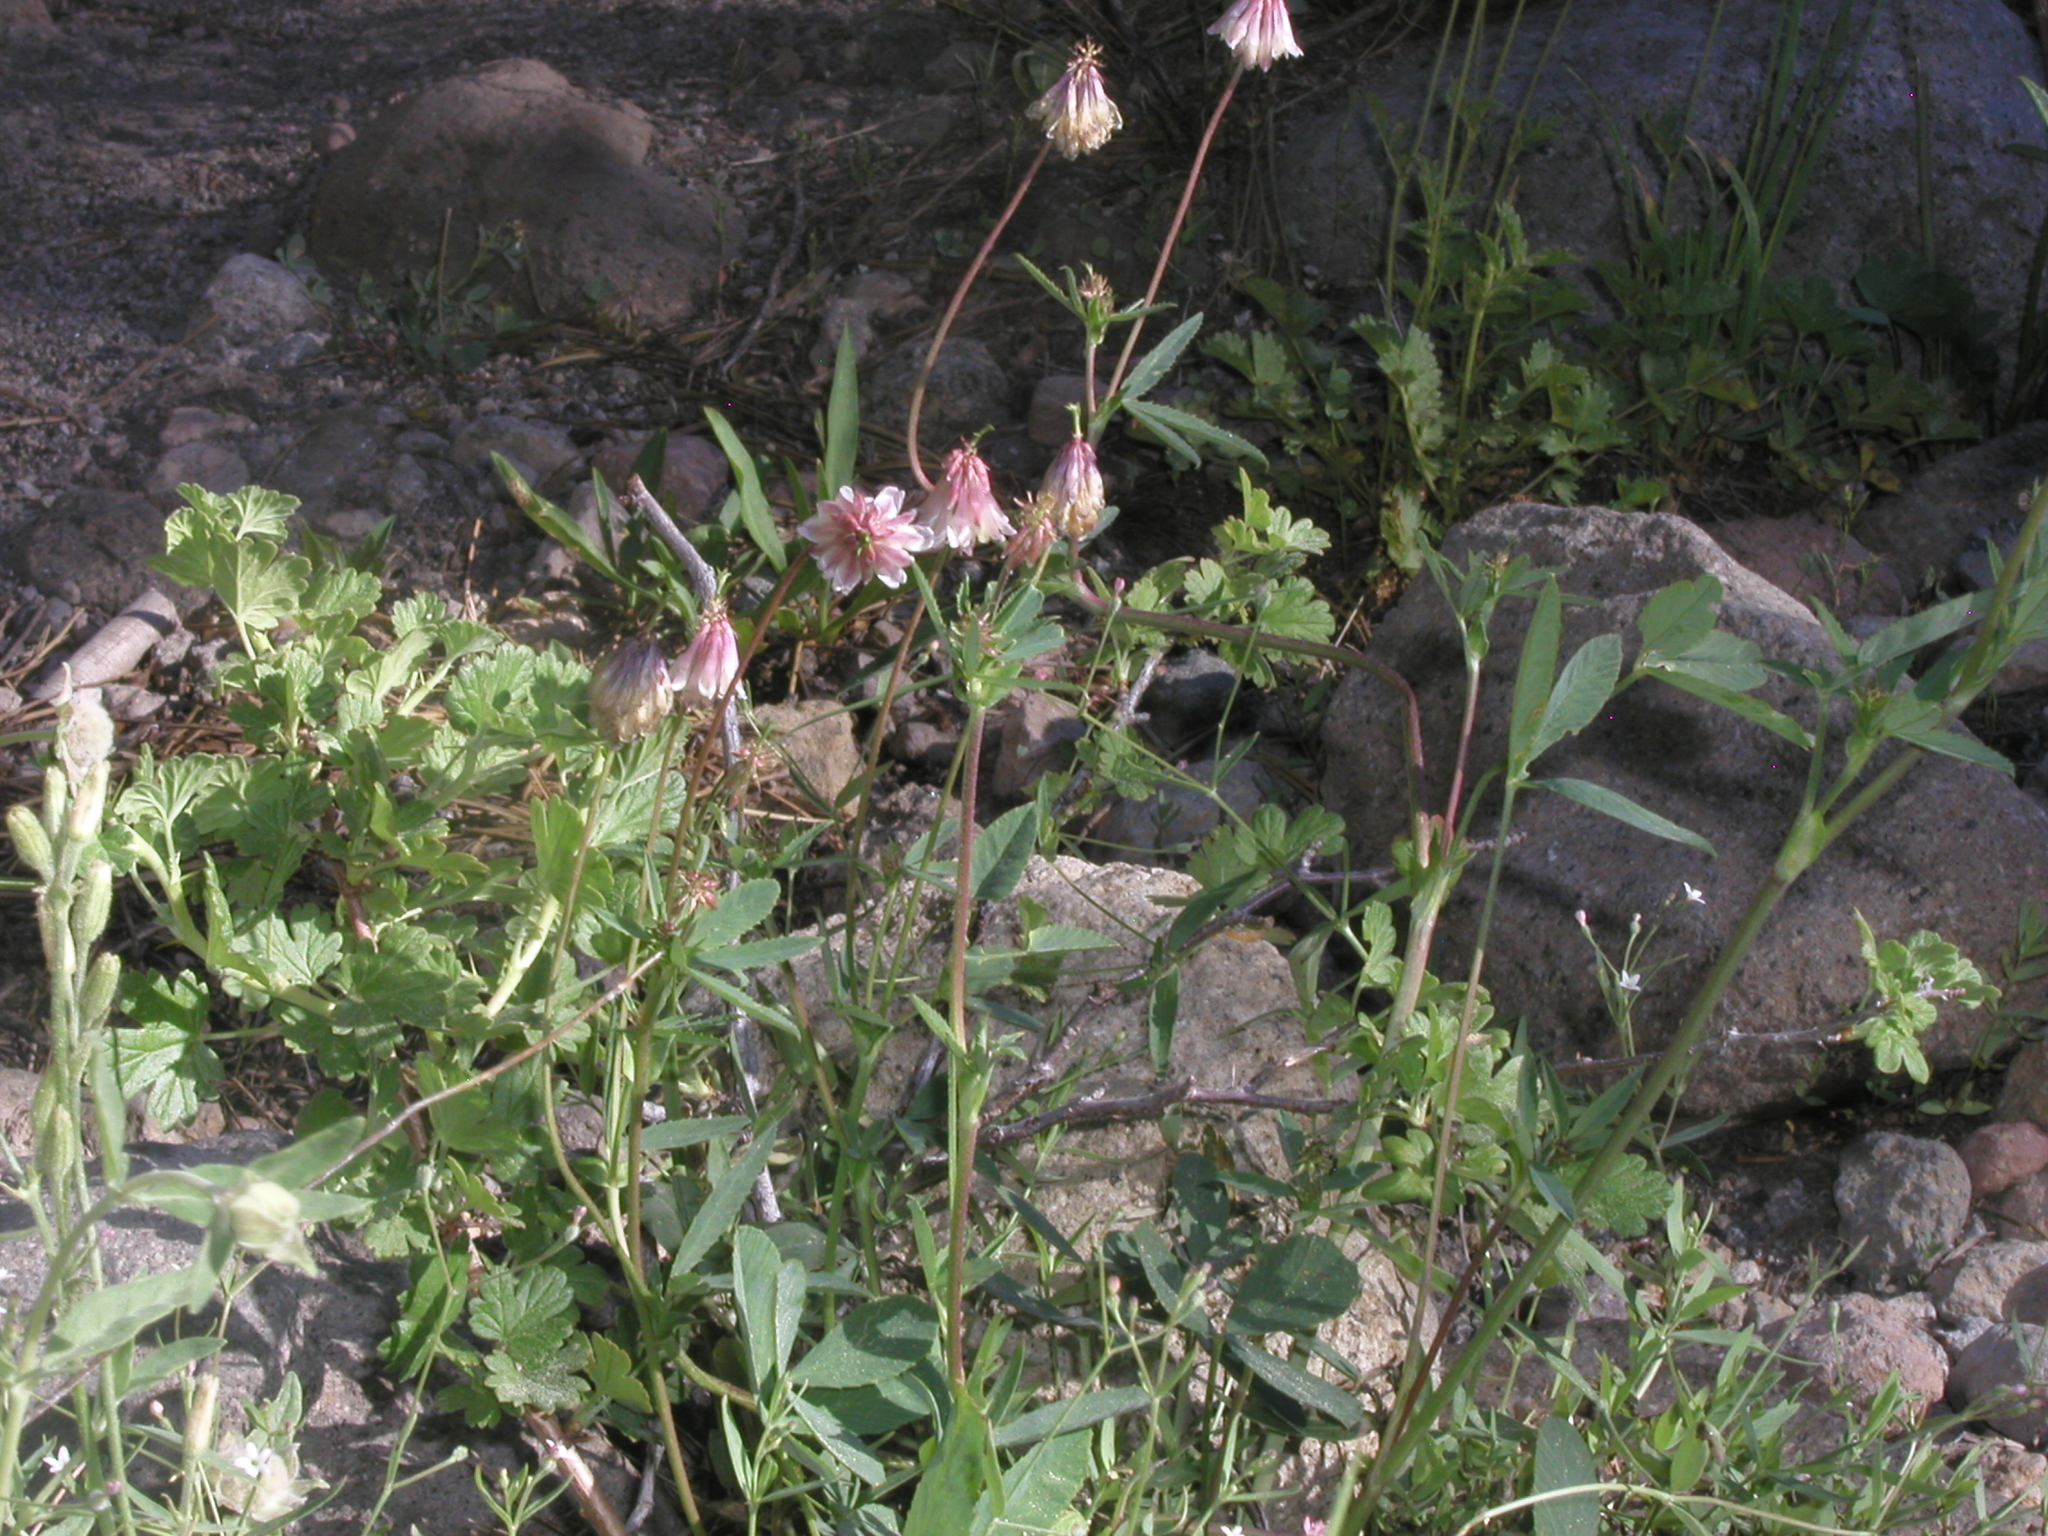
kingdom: Plantae
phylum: Tracheophyta
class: Magnoliopsida
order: Fabales
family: Fabaceae
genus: Trifolium
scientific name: Trifolium productum
